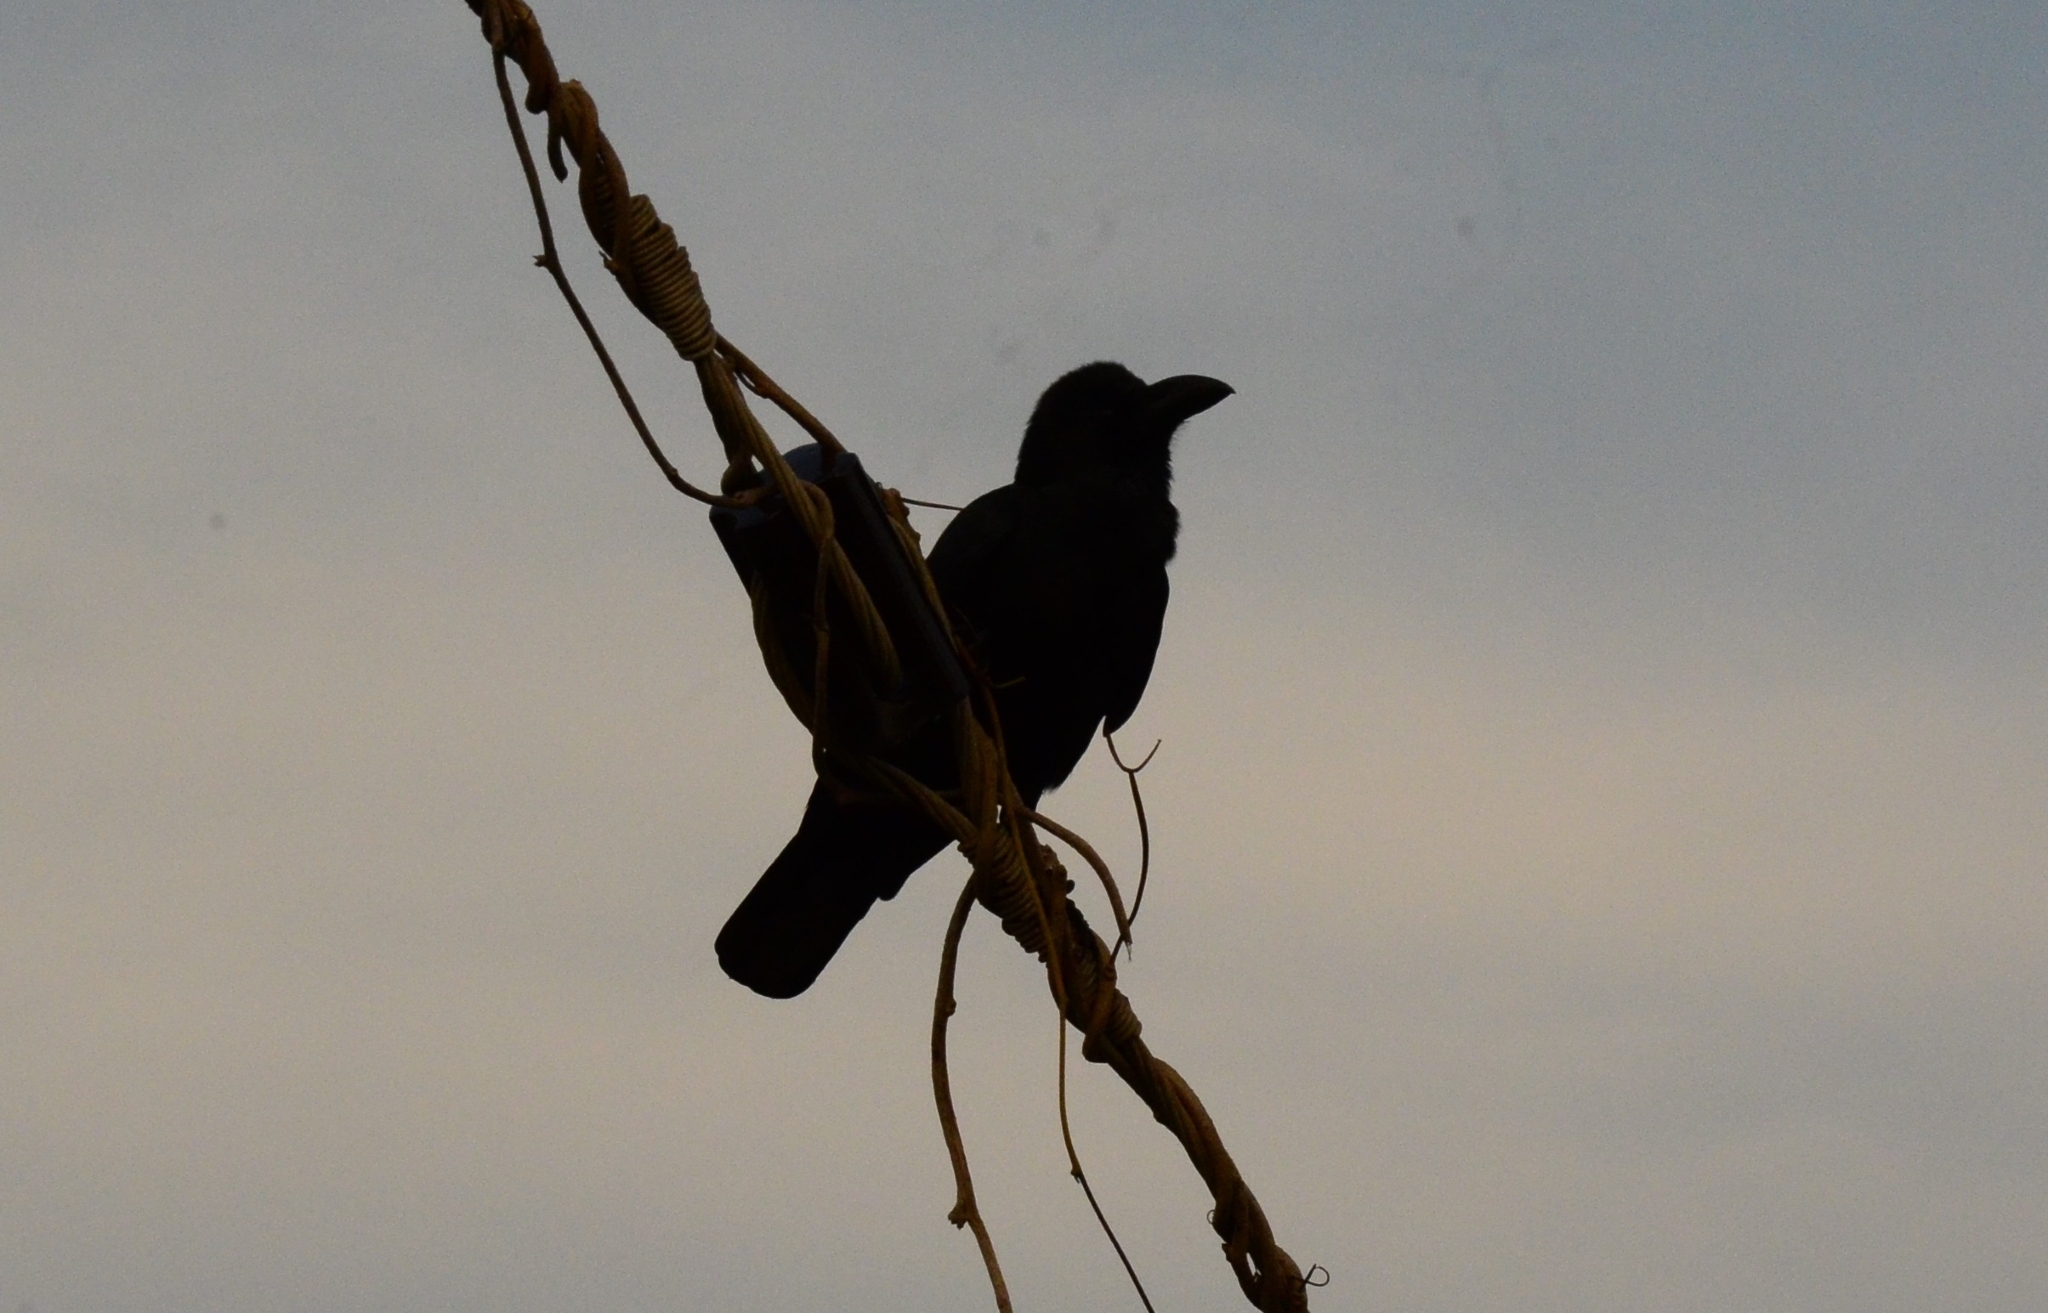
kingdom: Animalia
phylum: Chordata
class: Aves
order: Passeriformes
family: Corvidae
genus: Corvus
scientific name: Corvus macrorhynchos
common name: Large-billed crow
